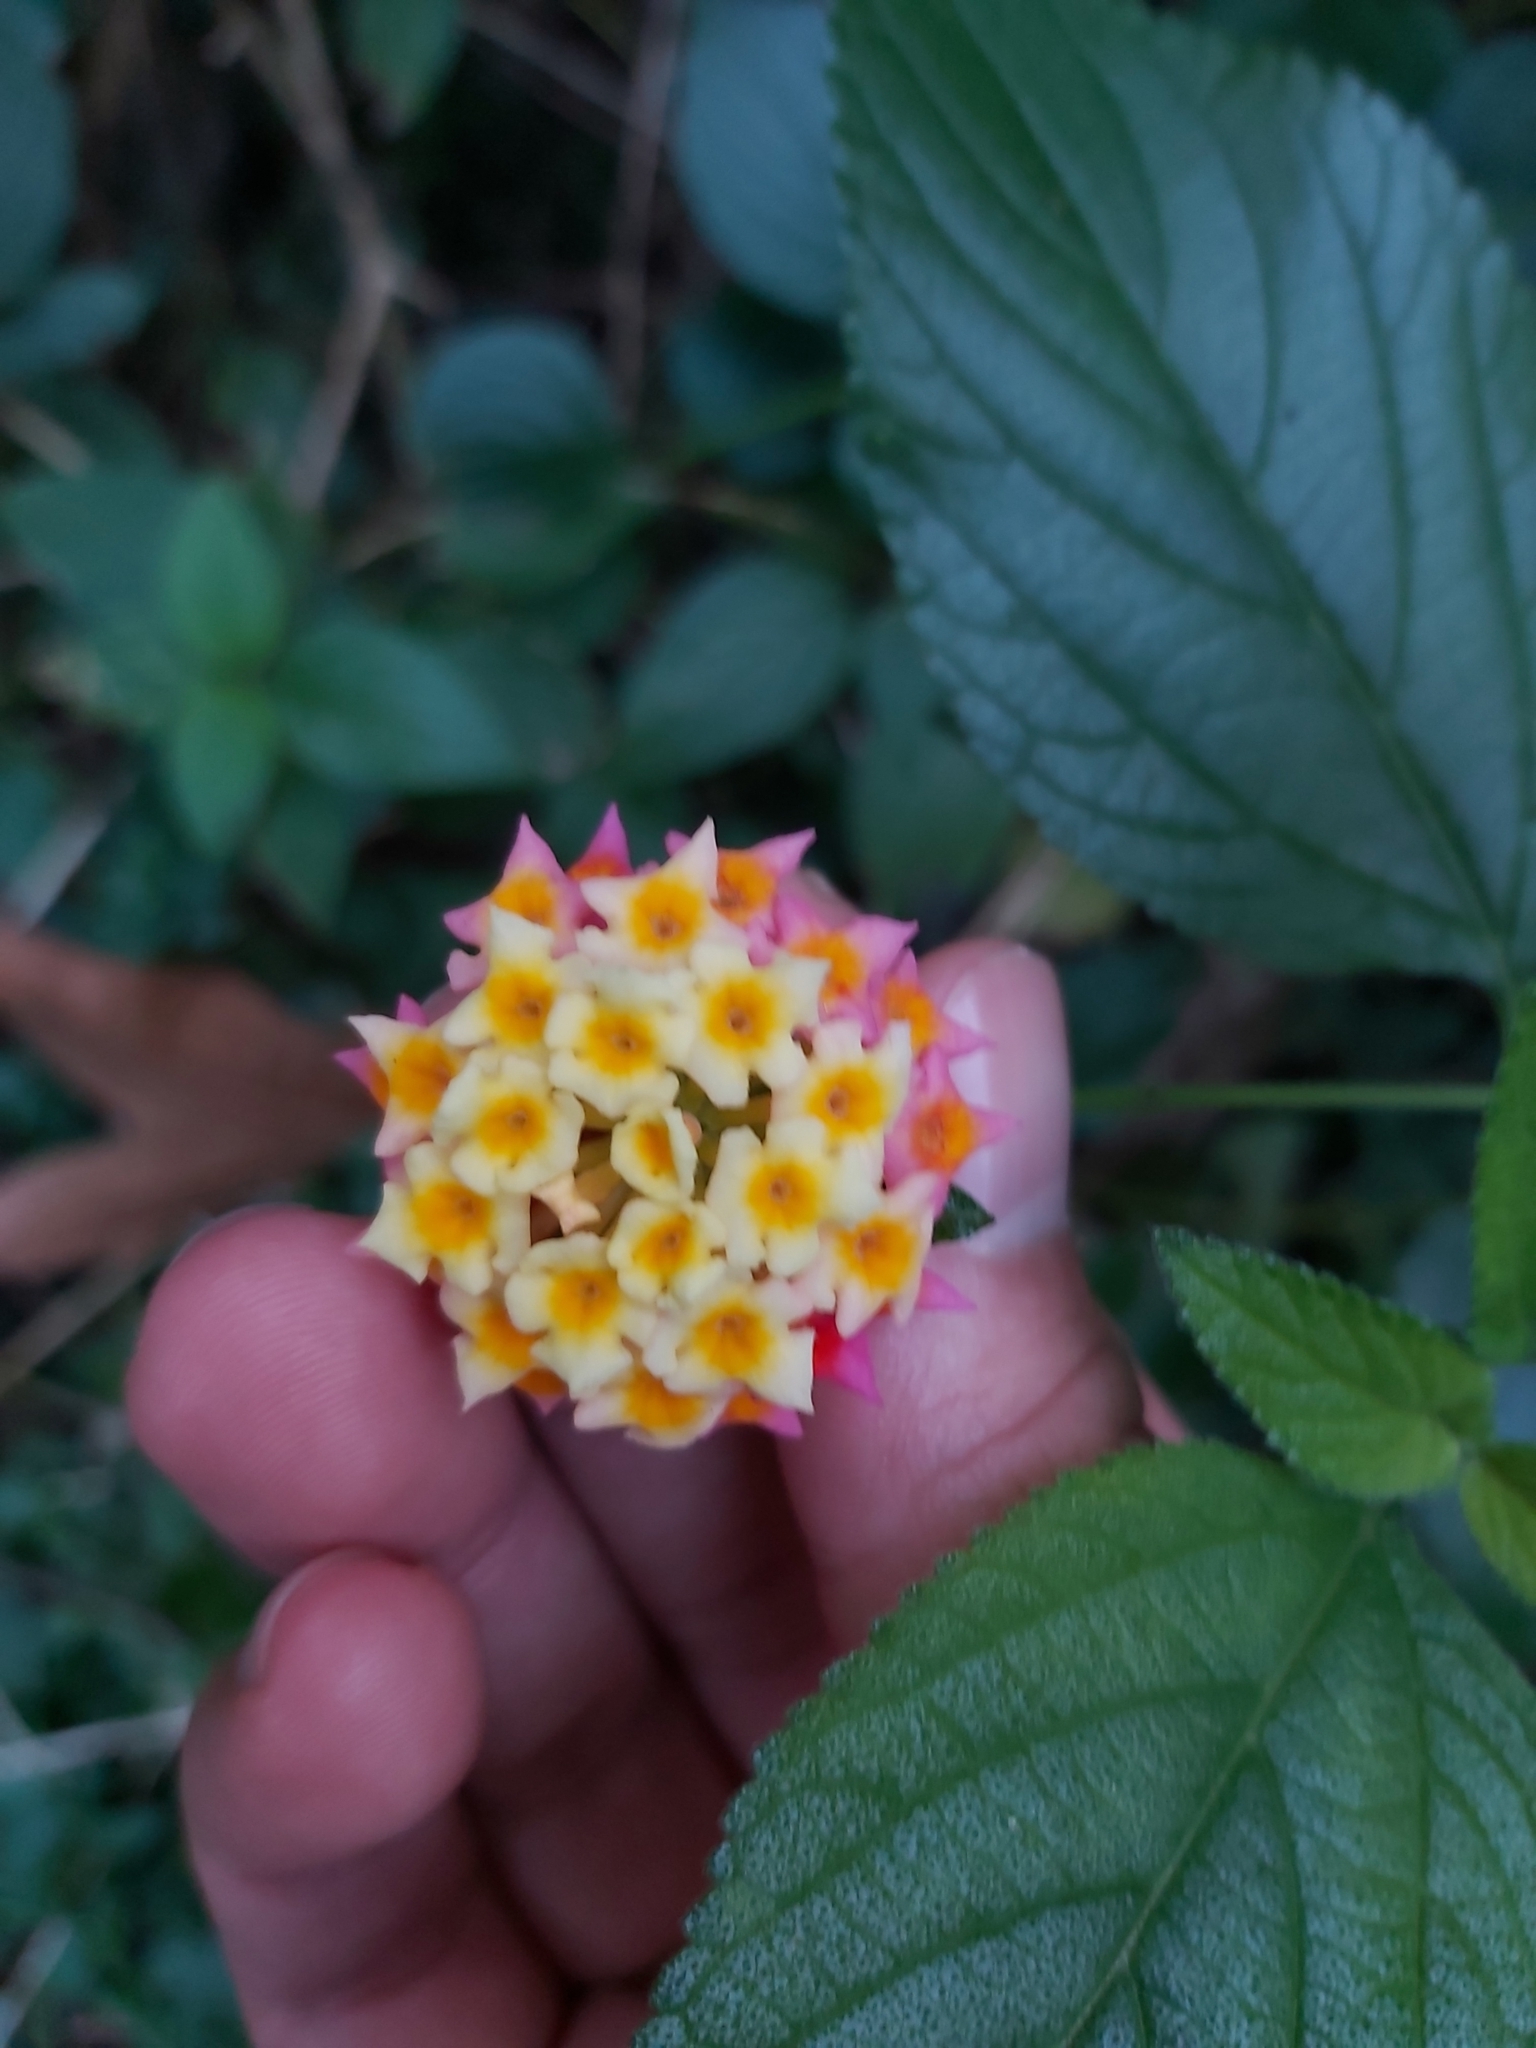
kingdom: Plantae
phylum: Tracheophyta
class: Magnoliopsida
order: Lamiales
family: Verbenaceae
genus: Lantana
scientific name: Lantana camara
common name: Lantana
